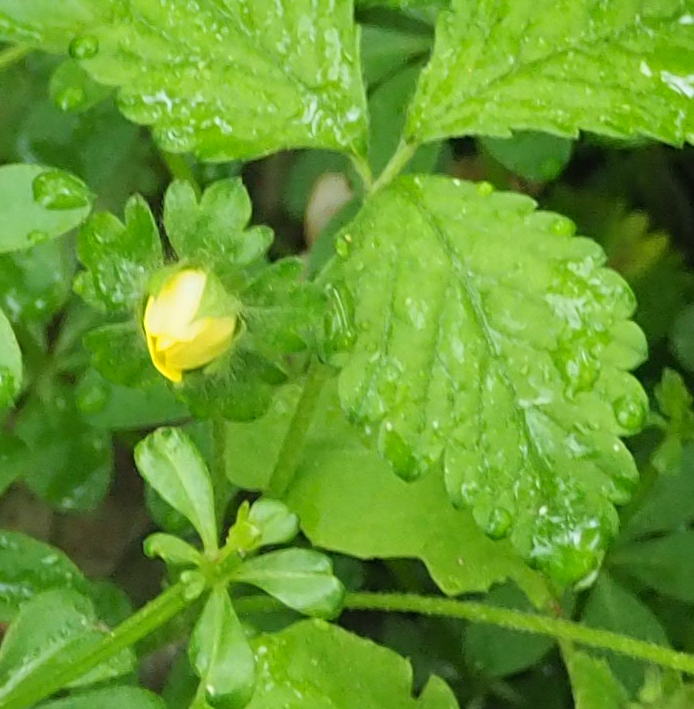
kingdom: Plantae
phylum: Tracheophyta
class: Magnoliopsida
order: Rosales
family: Rosaceae
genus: Potentilla
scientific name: Potentilla indica
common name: Yellow-flowered strawberry
